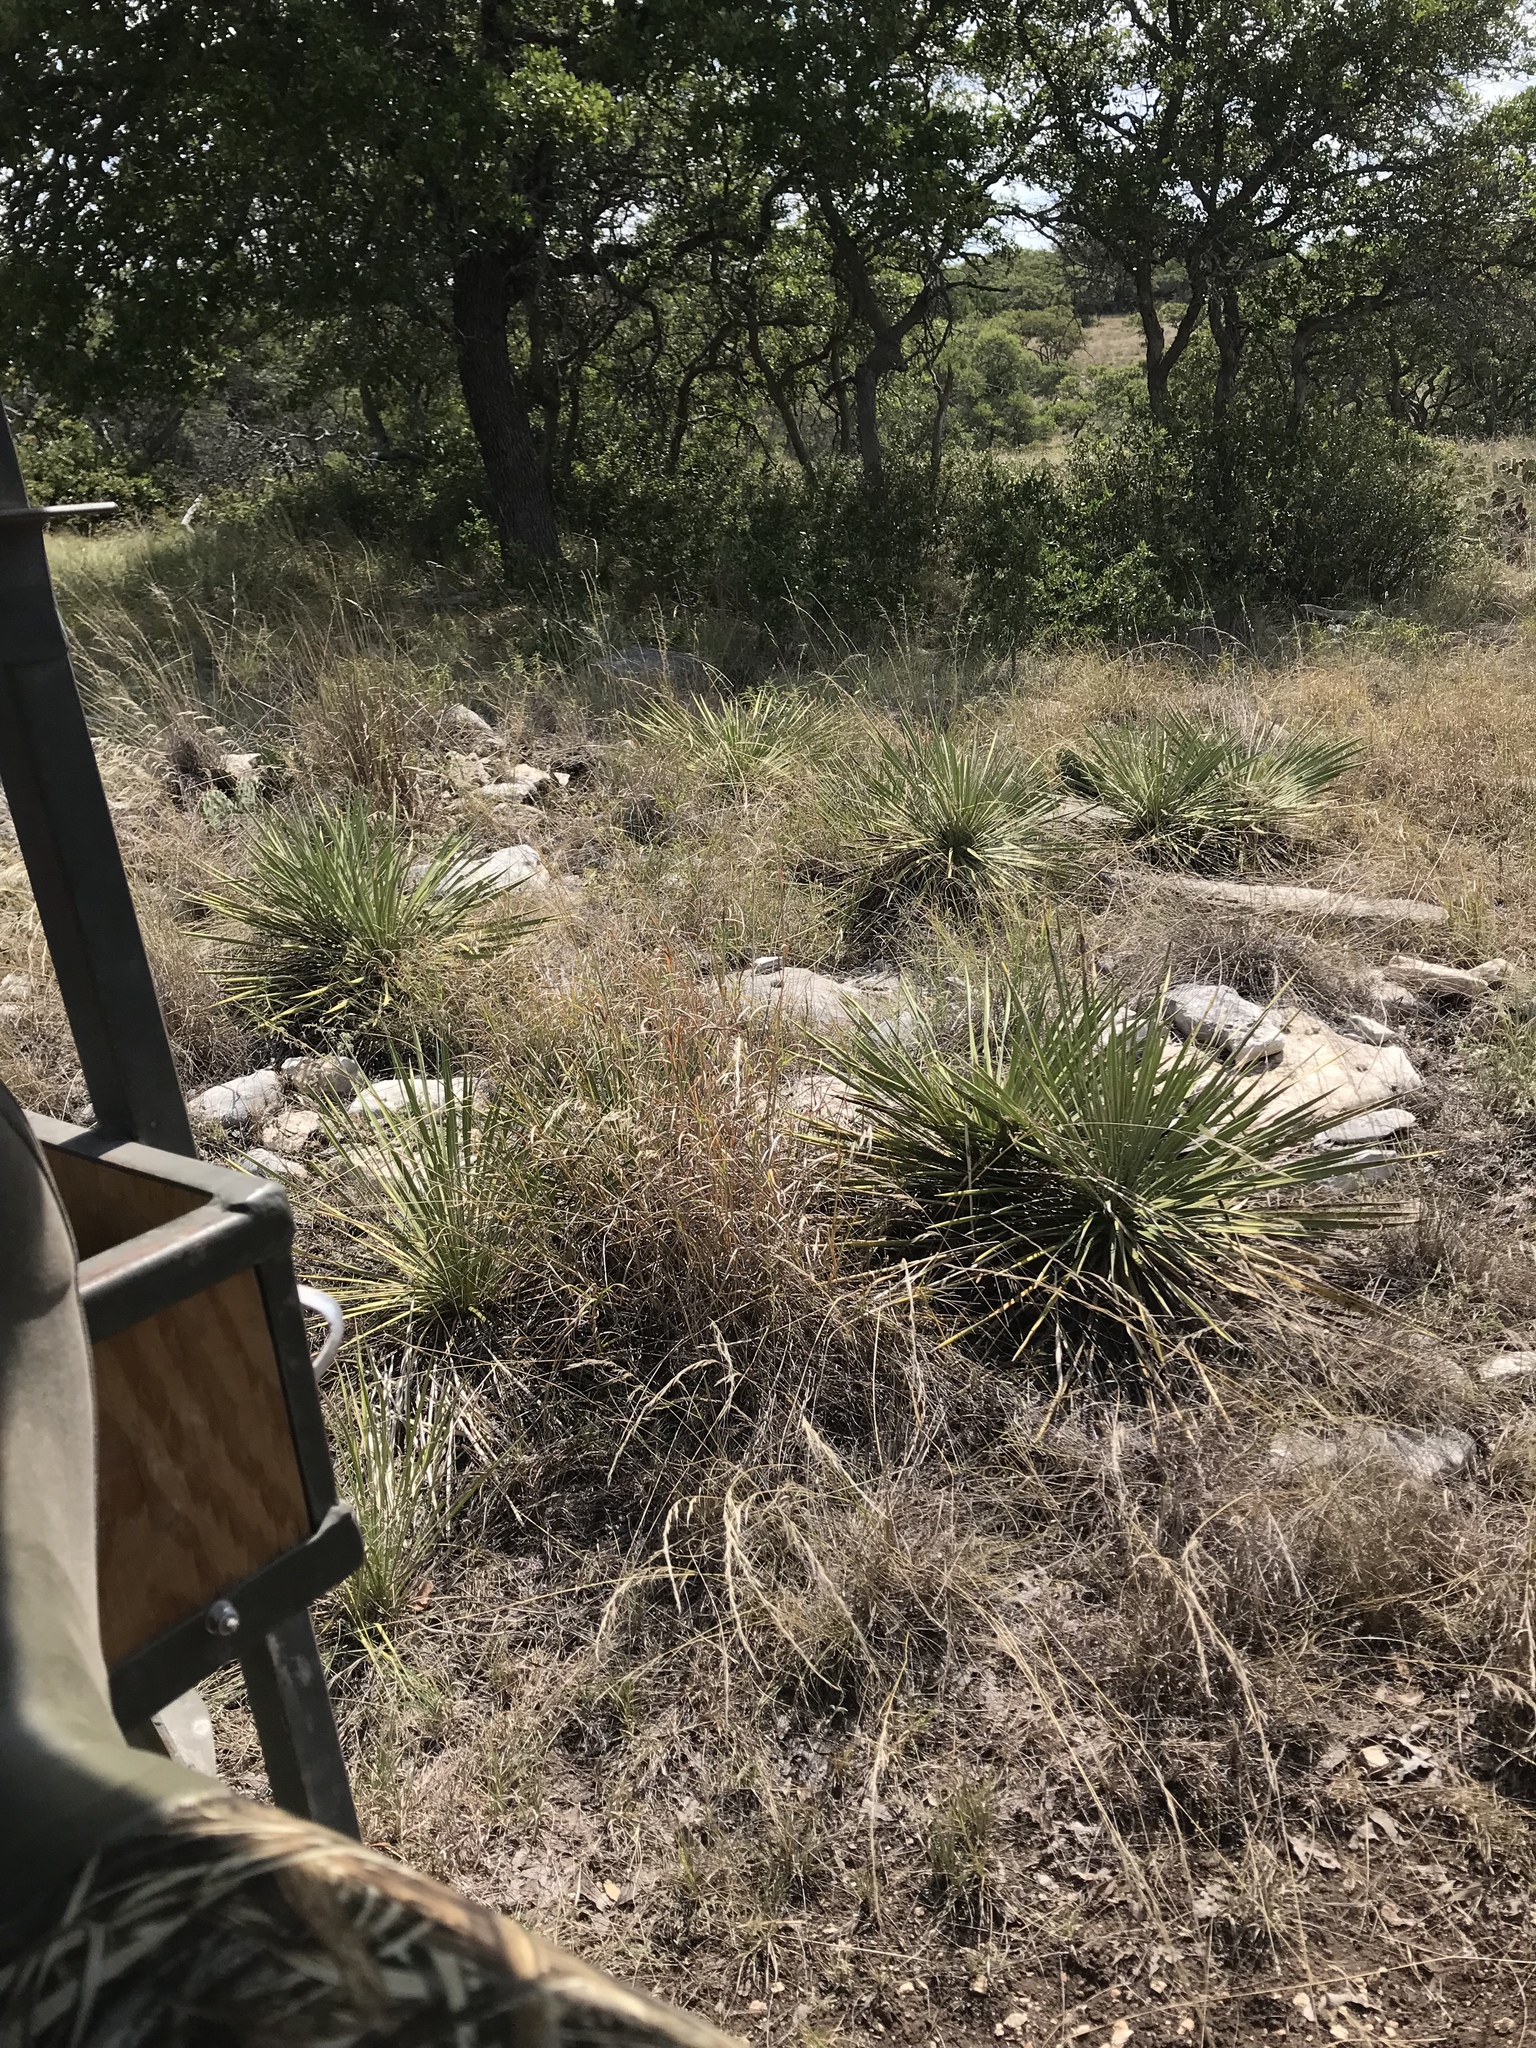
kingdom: Plantae
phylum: Tracheophyta
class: Liliopsida
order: Asparagales
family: Asparagaceae
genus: Yucca
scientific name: Yucca constricta
